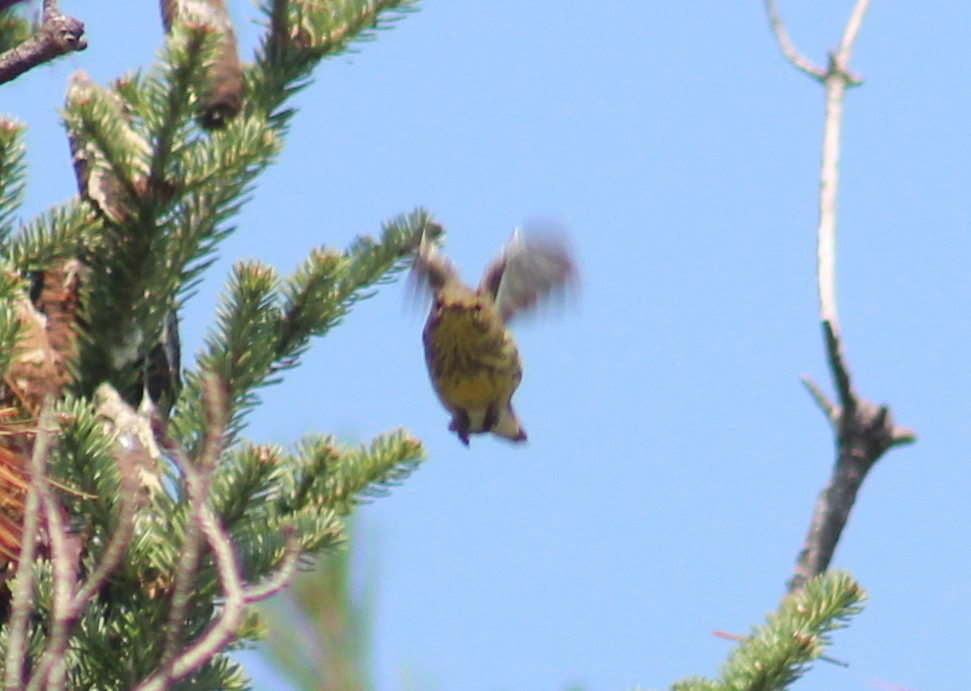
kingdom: Animalia
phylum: Chordata
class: Aves
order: Passeriformes
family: Parulidae
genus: Setophaga
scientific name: Setophaga tigrina
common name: Cape may warbler
